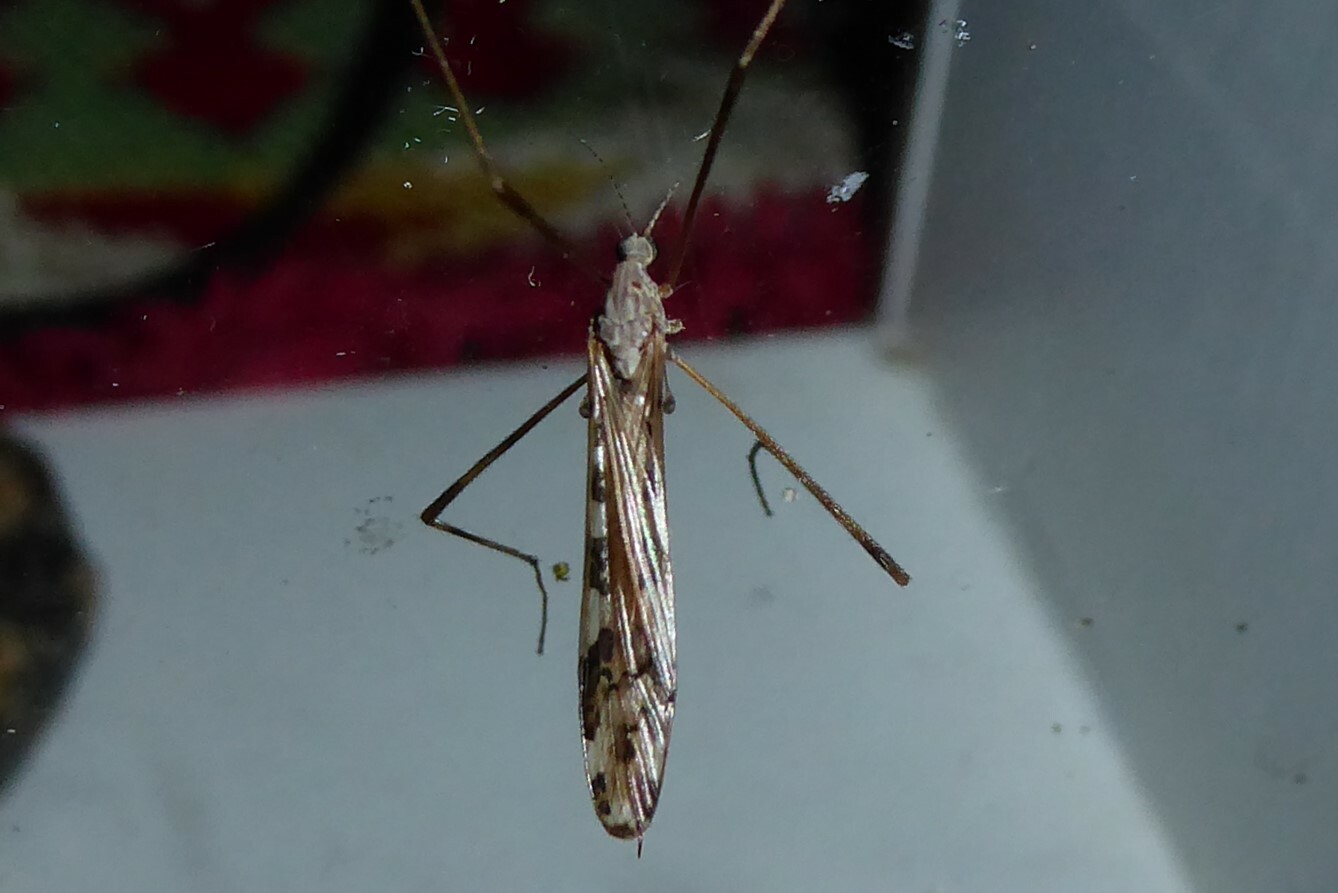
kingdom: Animalia
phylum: Arthropoda
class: Insecta
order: Diptera
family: Limoniidae
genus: Paralimnophila
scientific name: Paralimnophila skusei
